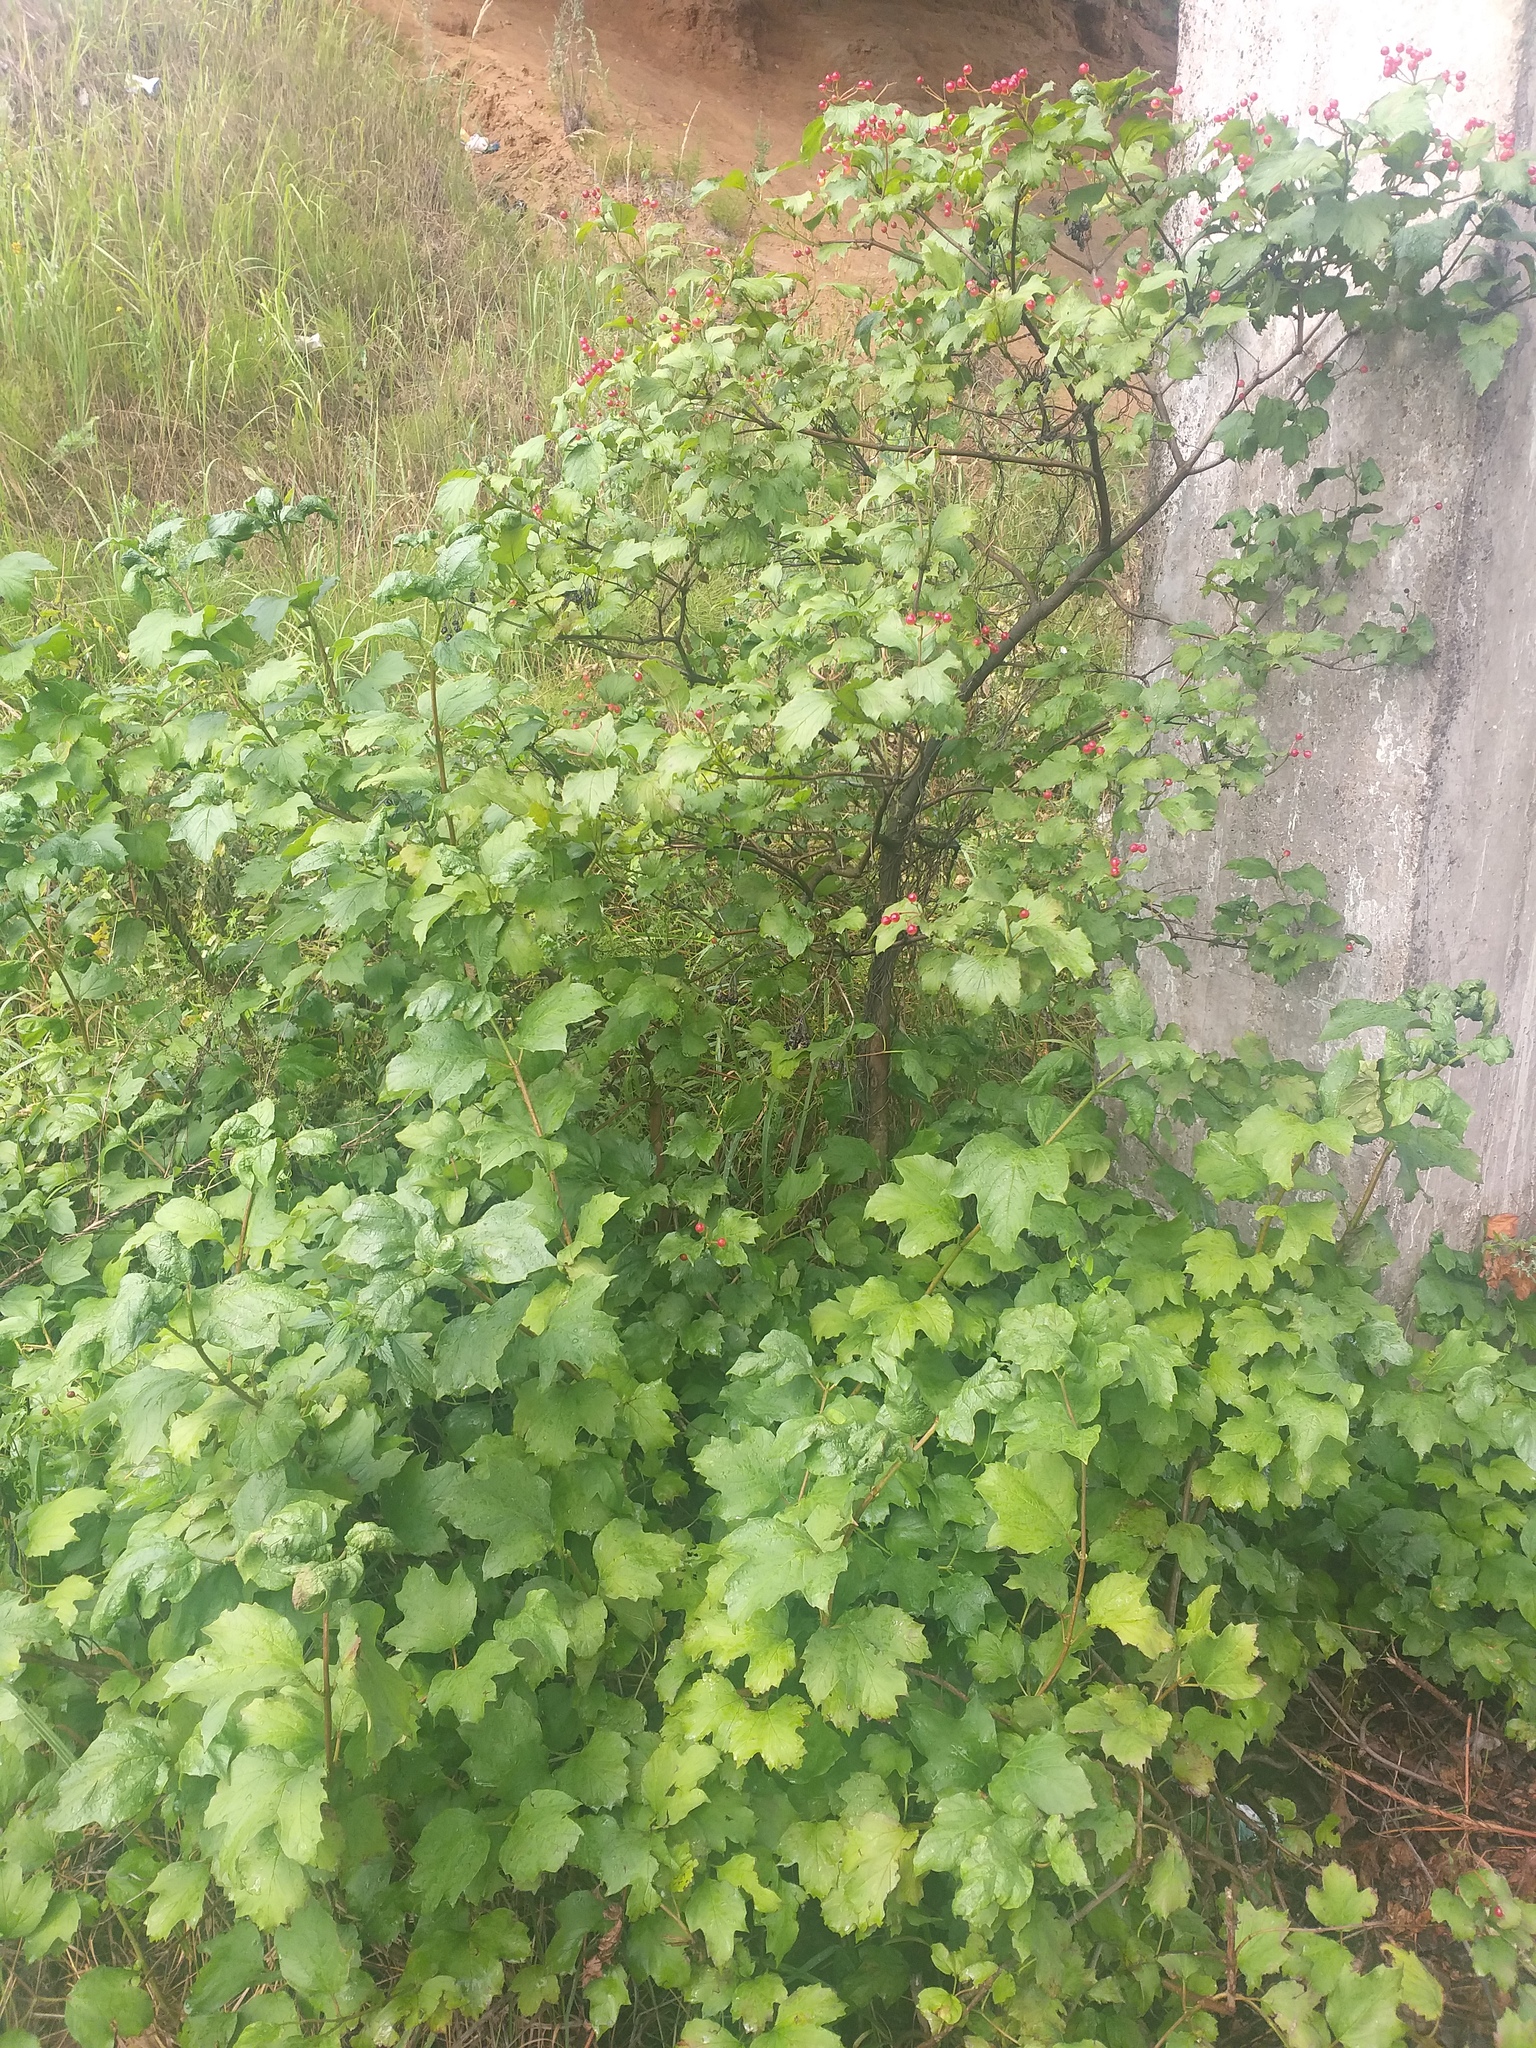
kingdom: Plantae
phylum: Tracheophyta
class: Magnoliopsida
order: Dipsacales
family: Viburnaceae
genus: Viburnum
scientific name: Viburnum opulus
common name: Guelder-rose
